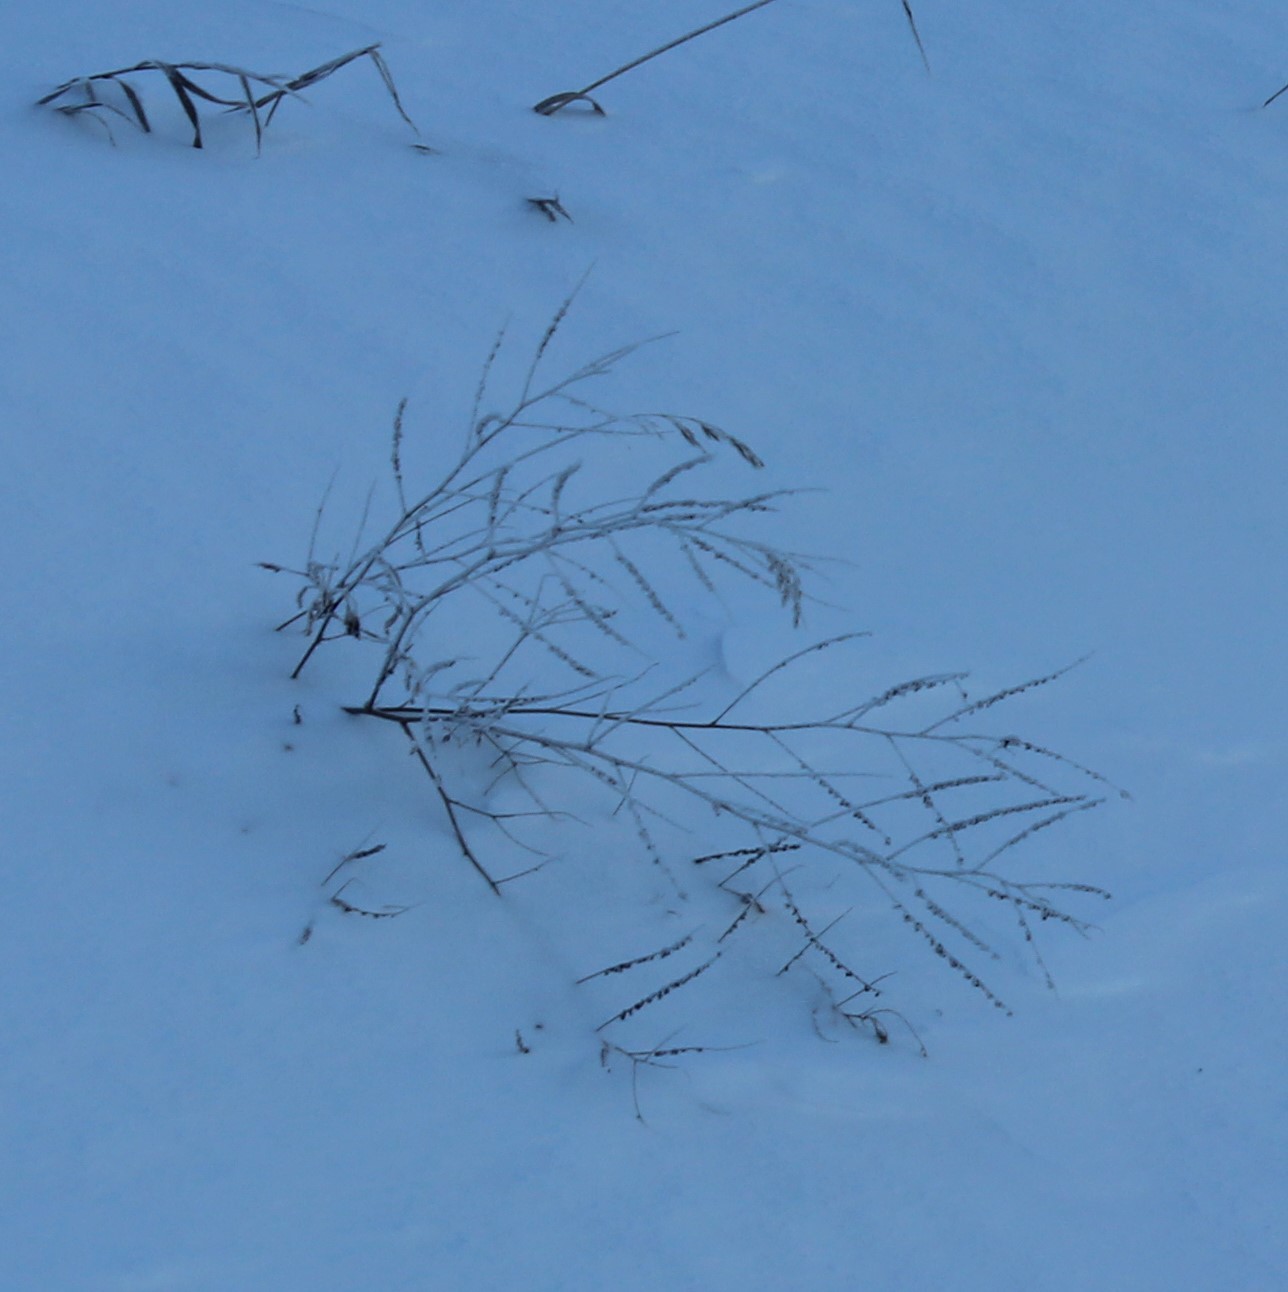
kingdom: Plantae
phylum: Tracheophyta
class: Magnoliopsida
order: Fabales
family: Fabaceae
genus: Melilotus
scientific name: Melilotus albus
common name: White melilot
